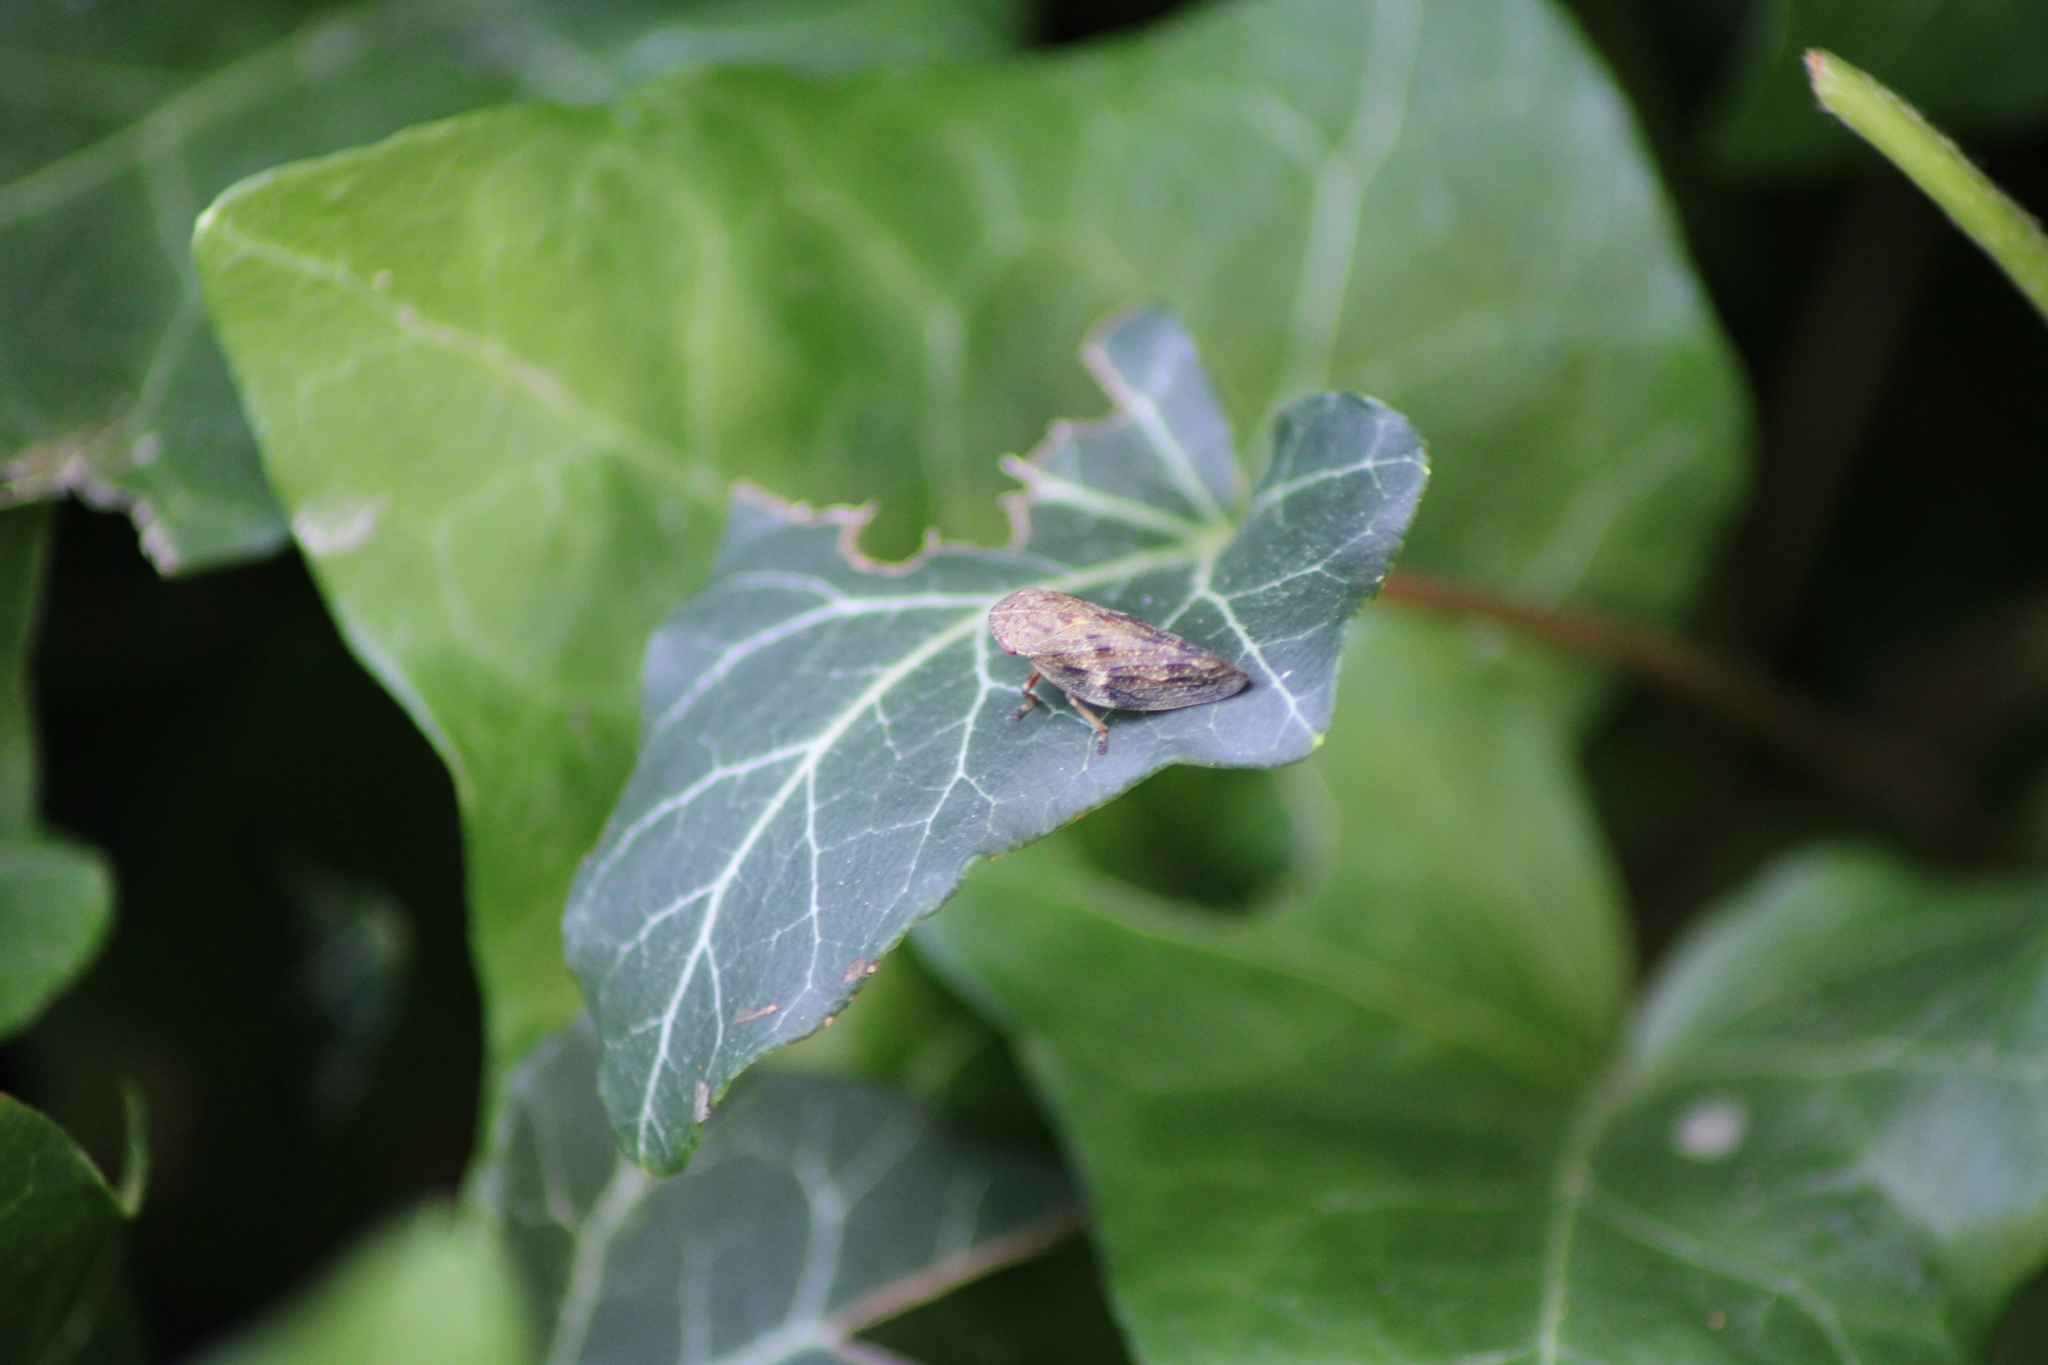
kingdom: Animalia
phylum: Arthropoda
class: Insecta
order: Hemiptera
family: Aphrophoridae
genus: Aphrophora
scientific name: Aphrophora alni
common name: European alder spittlebug
